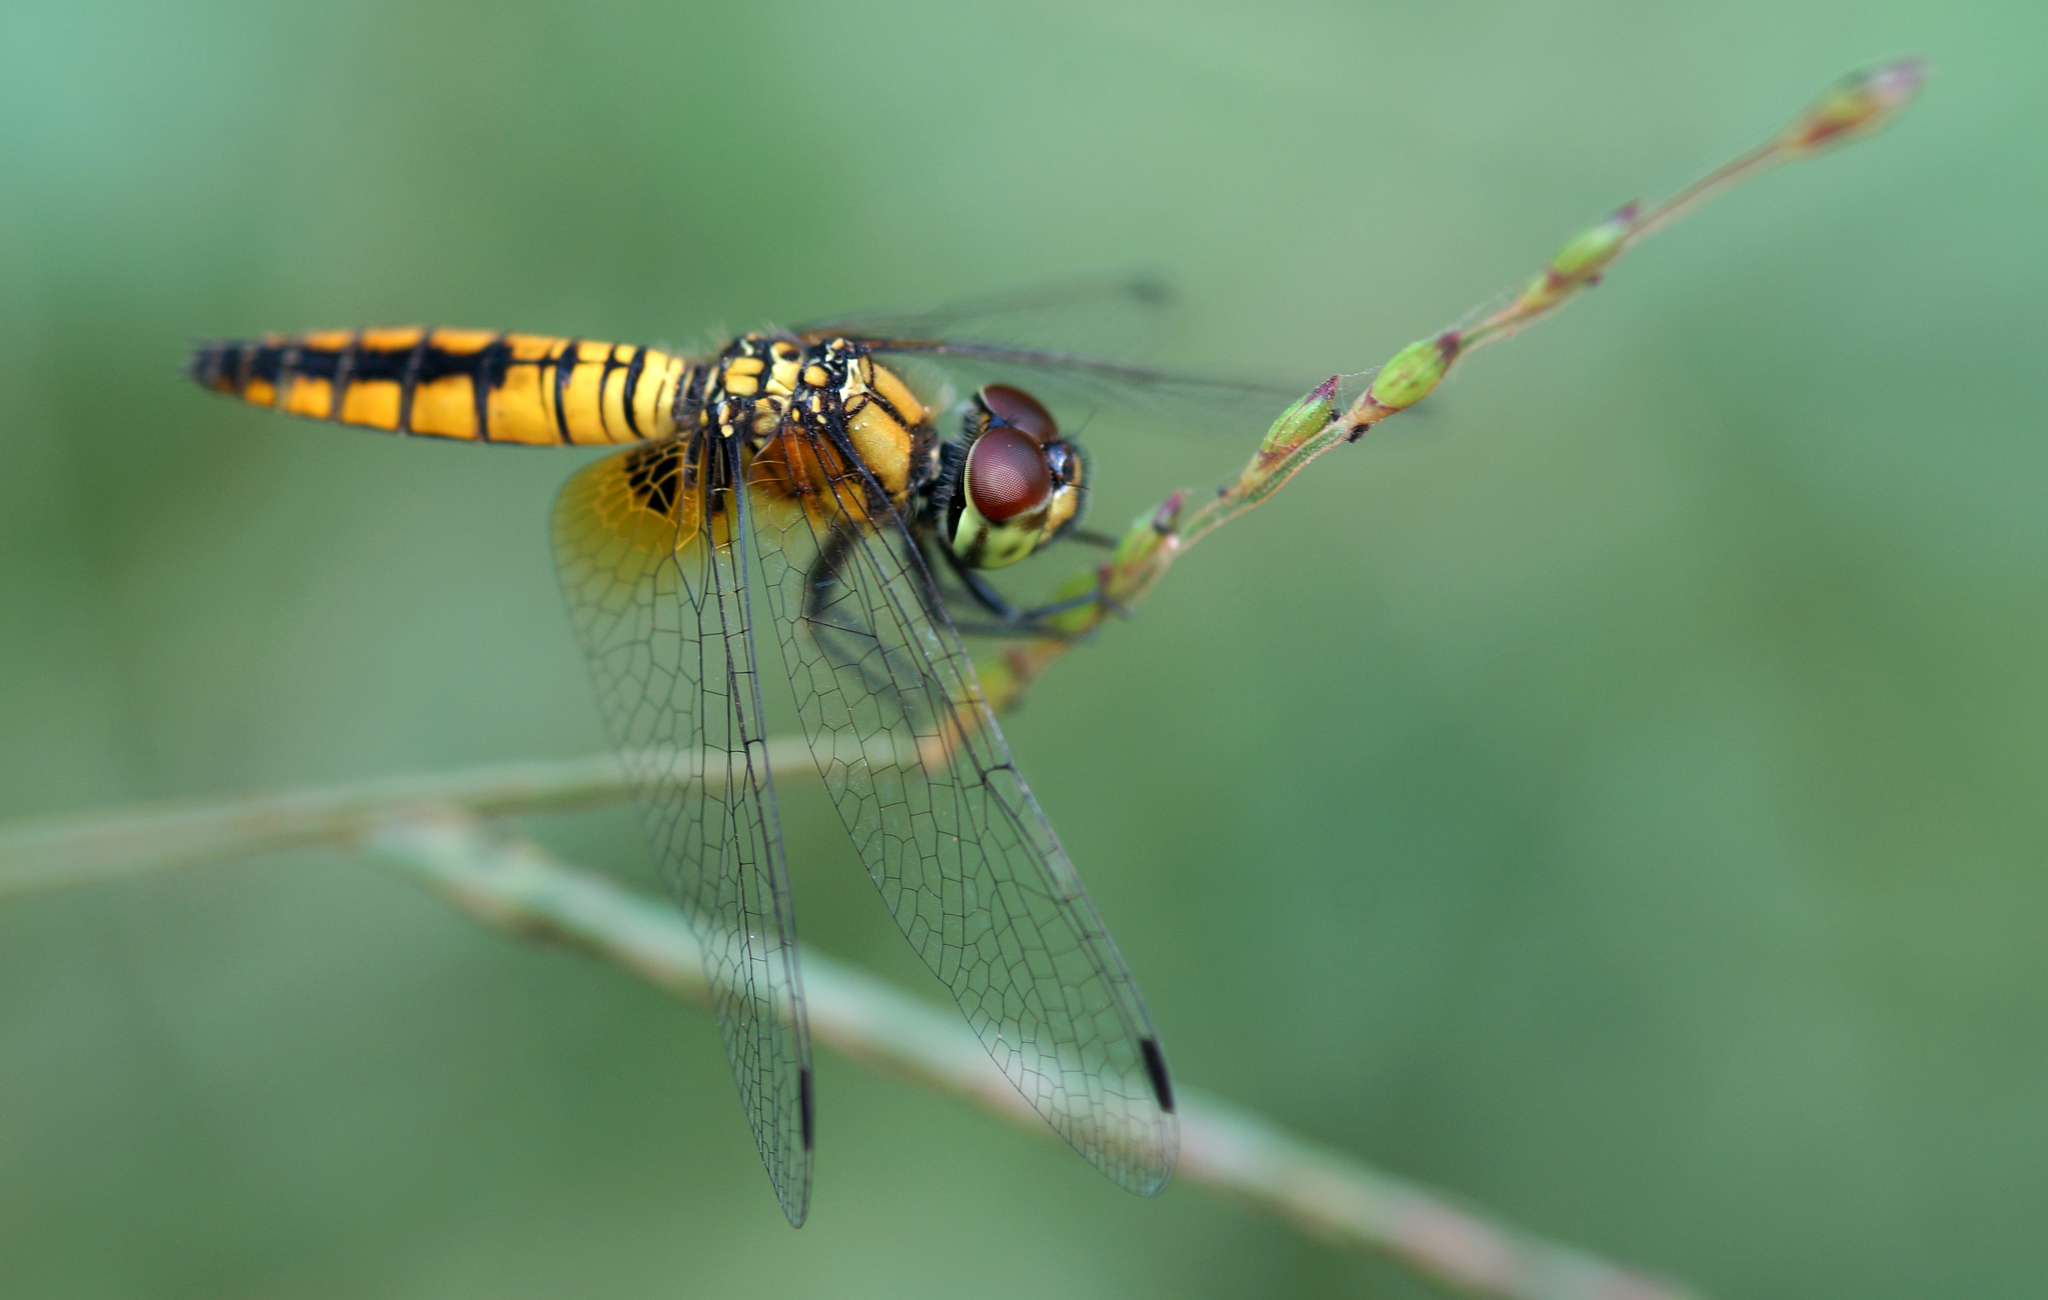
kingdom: Animalia
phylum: Arthropoda
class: Insecta
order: Odonata
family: Libellulidae
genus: Aethriamanta
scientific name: Aethriamanta brevipennis
